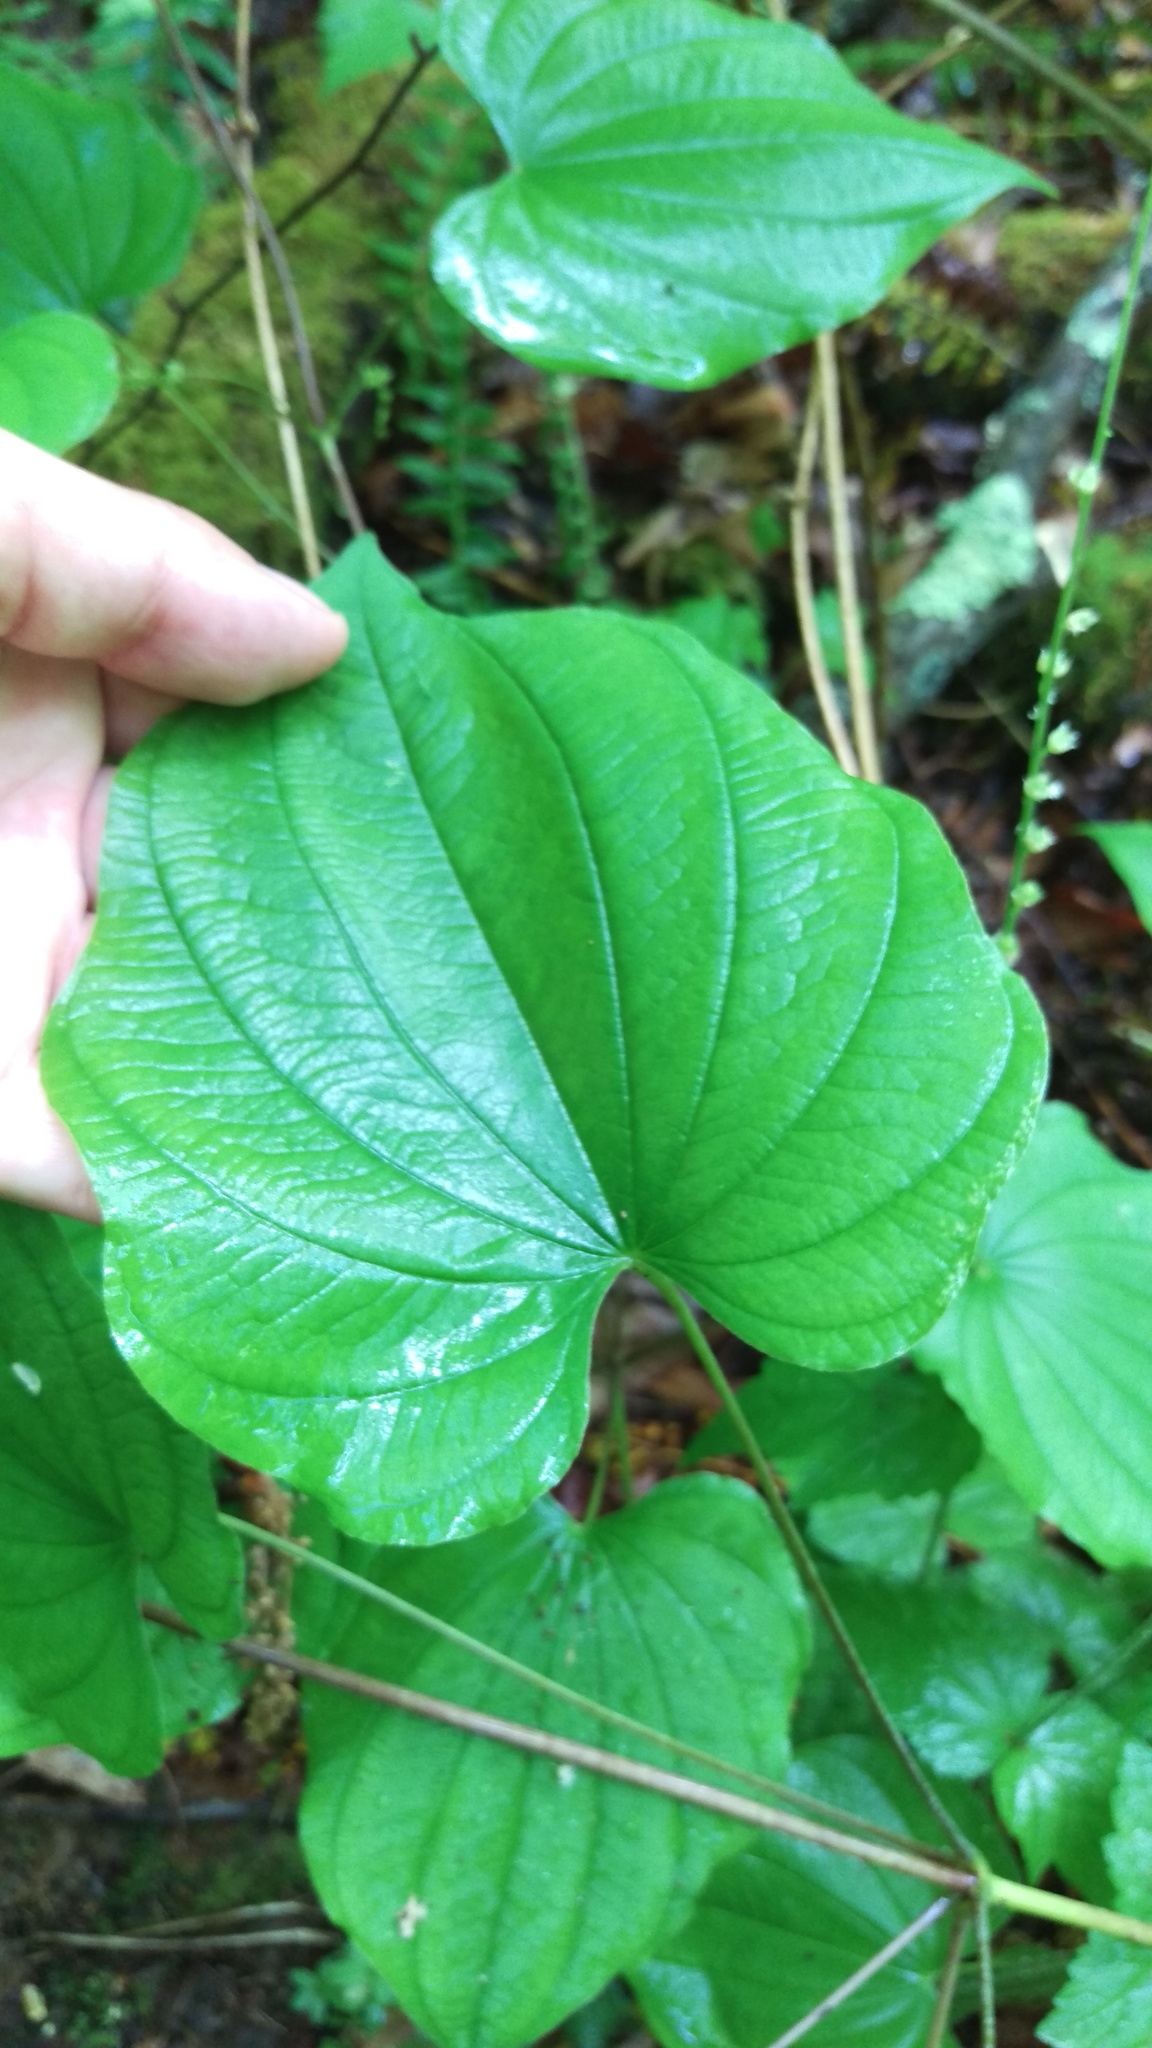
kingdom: Plantae
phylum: Tracheophyta
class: Liliopsida
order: Dioscoreales
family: Dioscoreaceae
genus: Dioscorea
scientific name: Dioscorea villosa
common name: Wild yam
